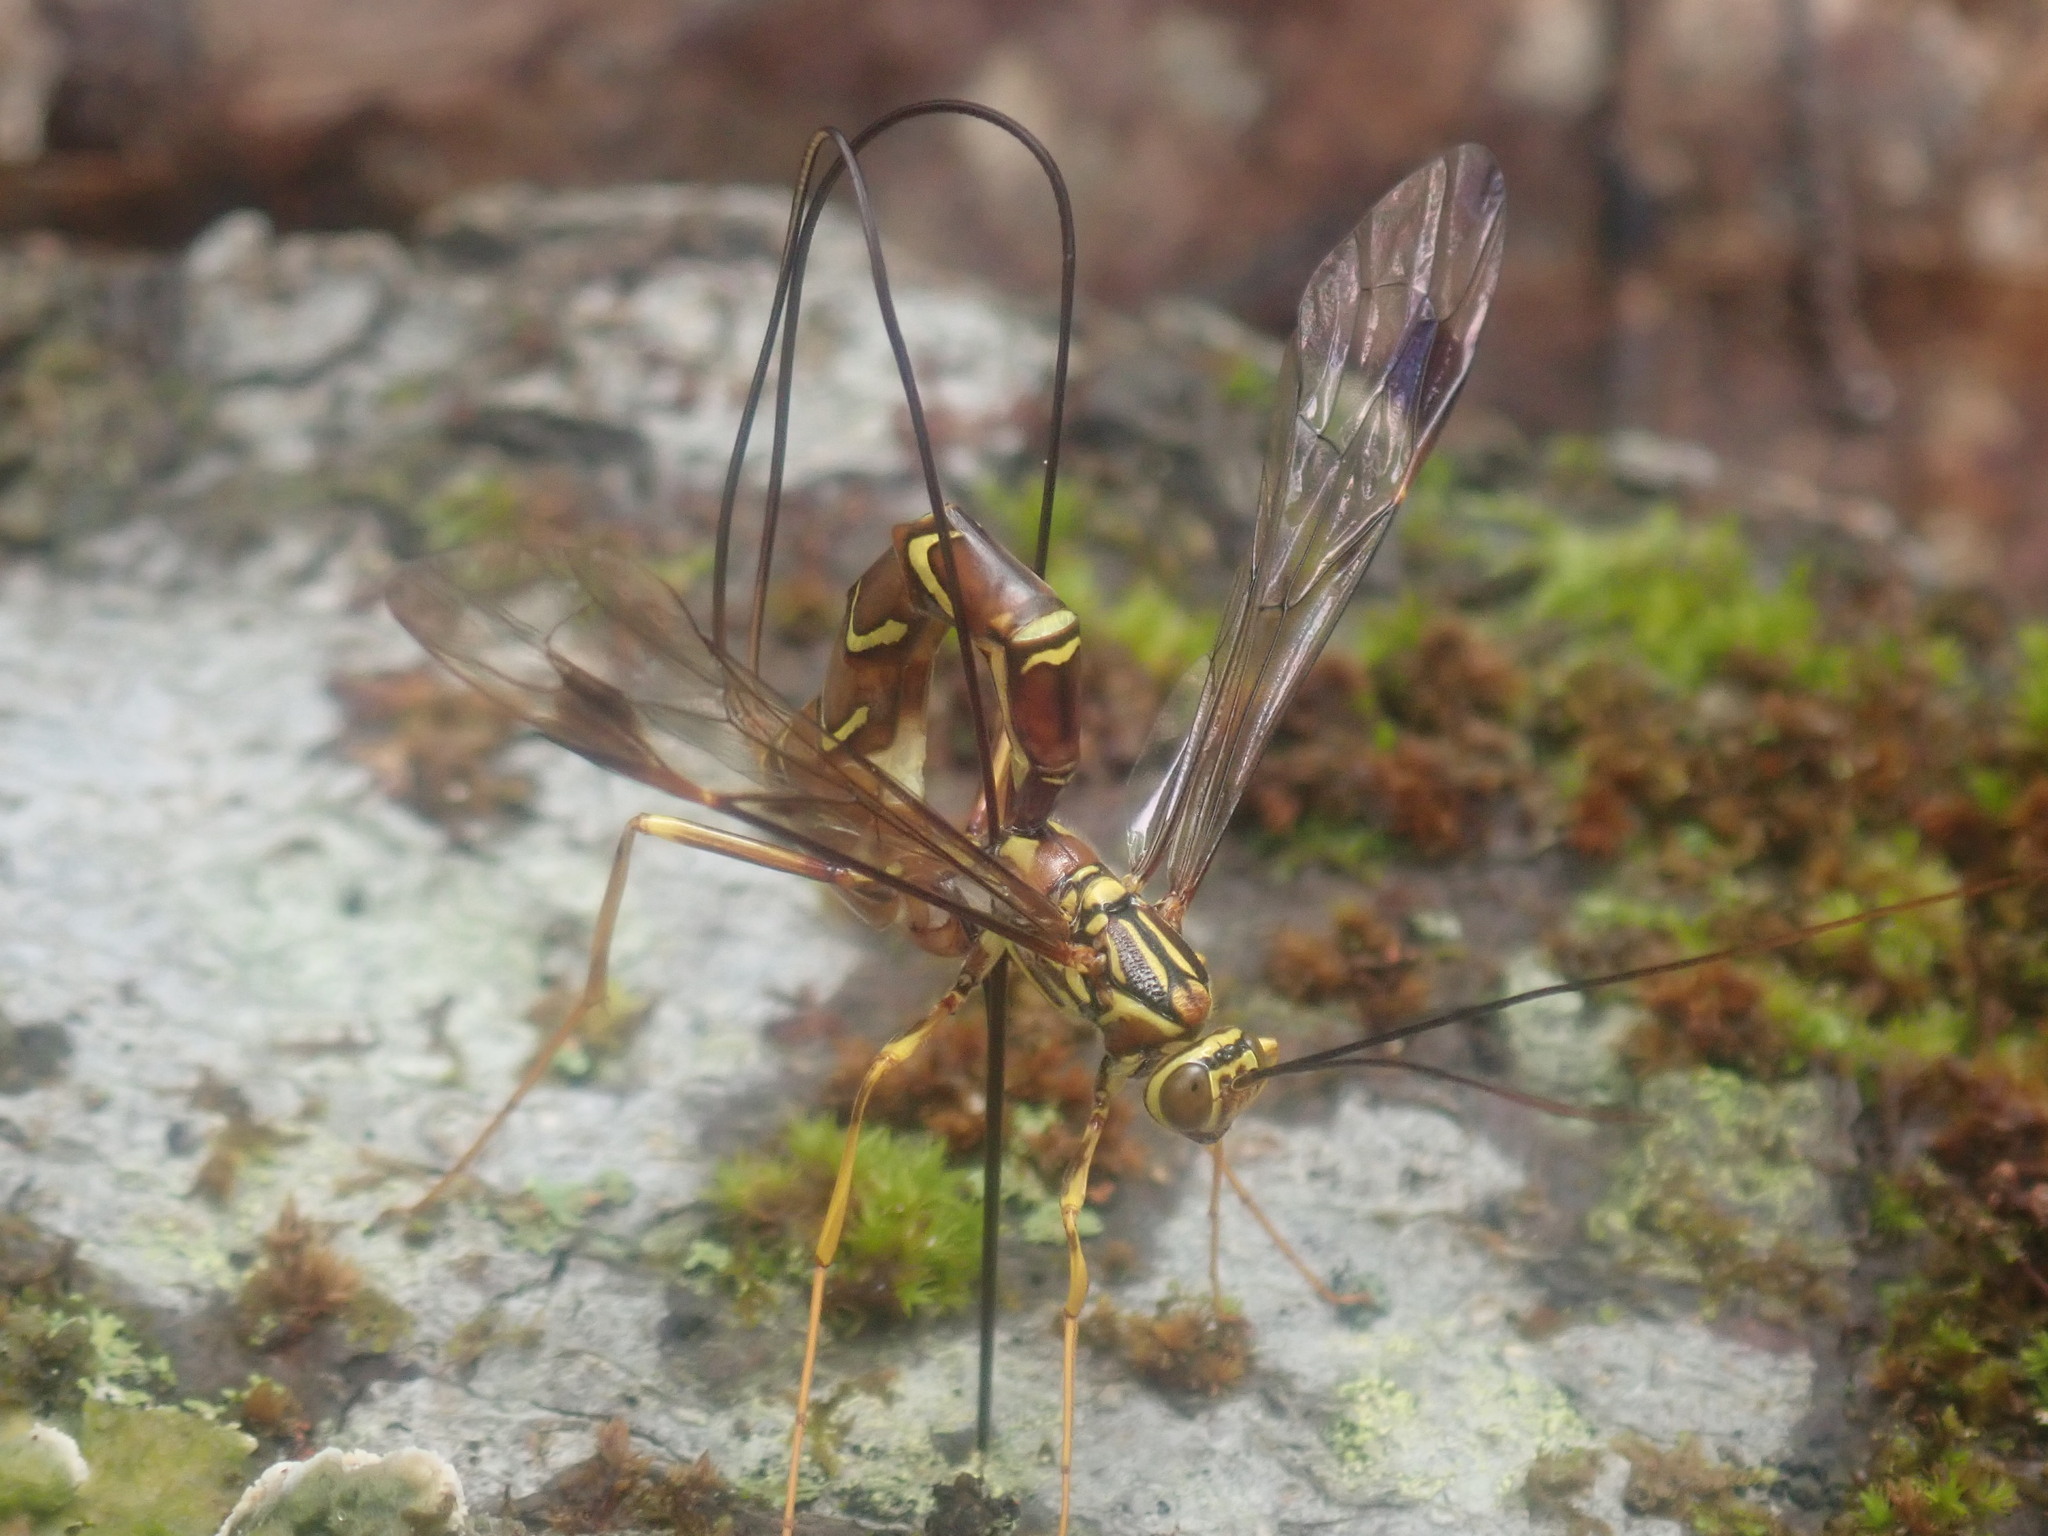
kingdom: Animalia
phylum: Arthropoda
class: Insecta
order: Hymenoptera
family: Ichneumonidae
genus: Megarhyssa
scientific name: Megarhyssa macrura
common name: Long-tailed giant ichneumonid wasp
